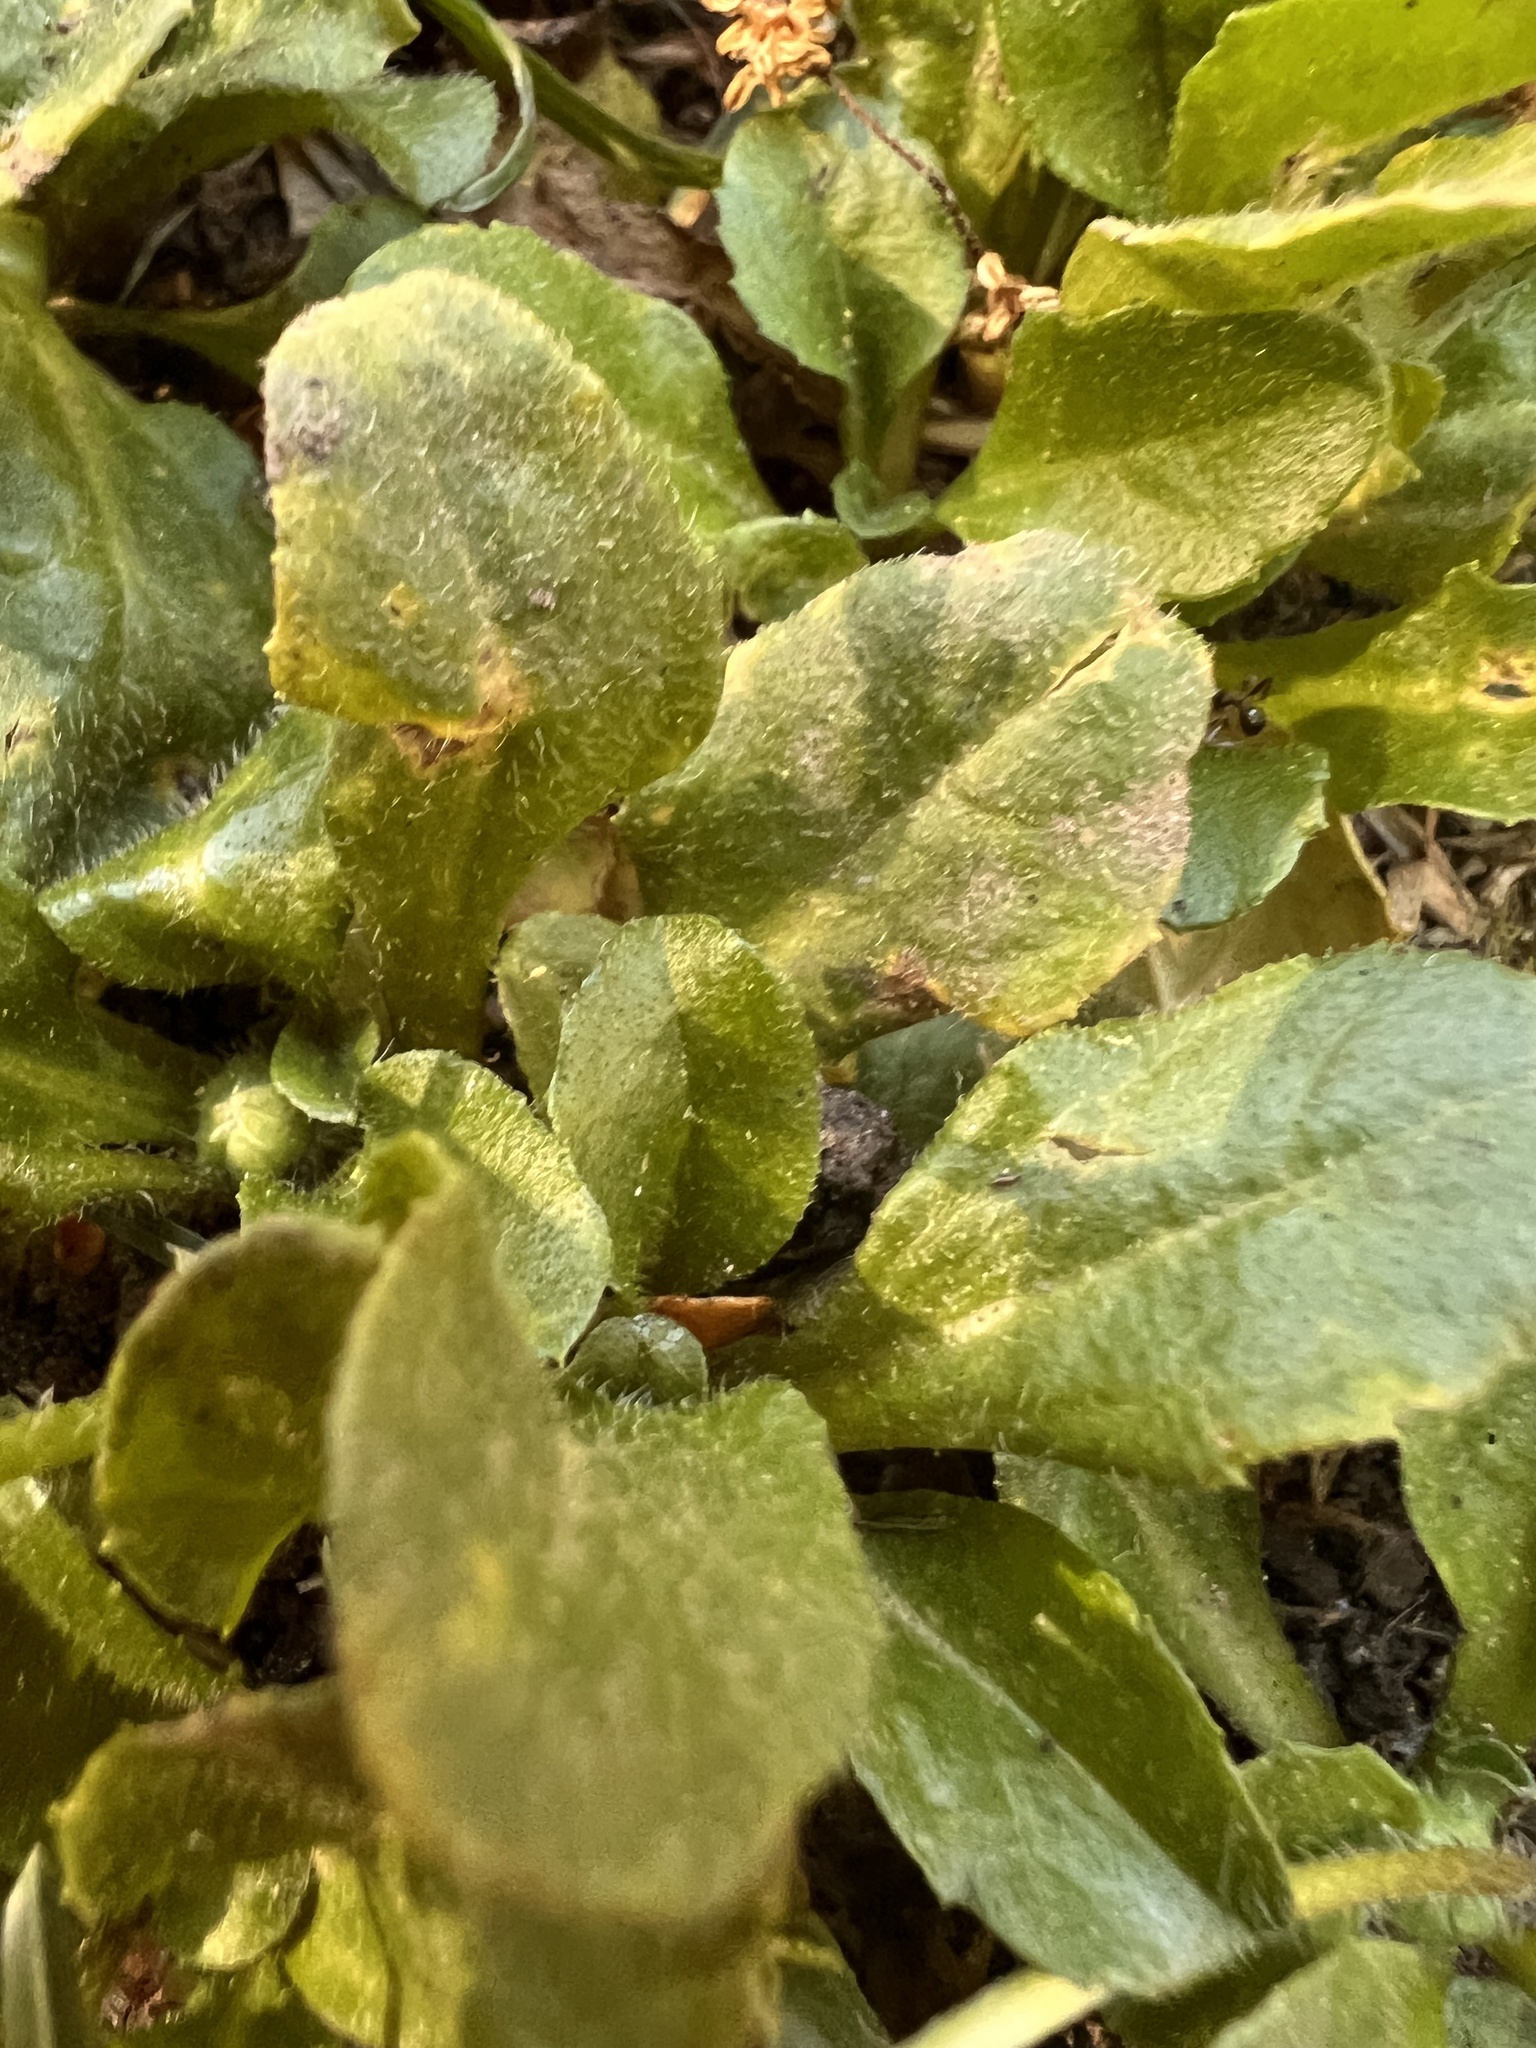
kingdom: Plantae
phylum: Tracheophyta
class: Magnoliopsida
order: Asterales
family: Asteraceae
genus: Bellis
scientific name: Bellis perennis
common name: Lawndaisy
